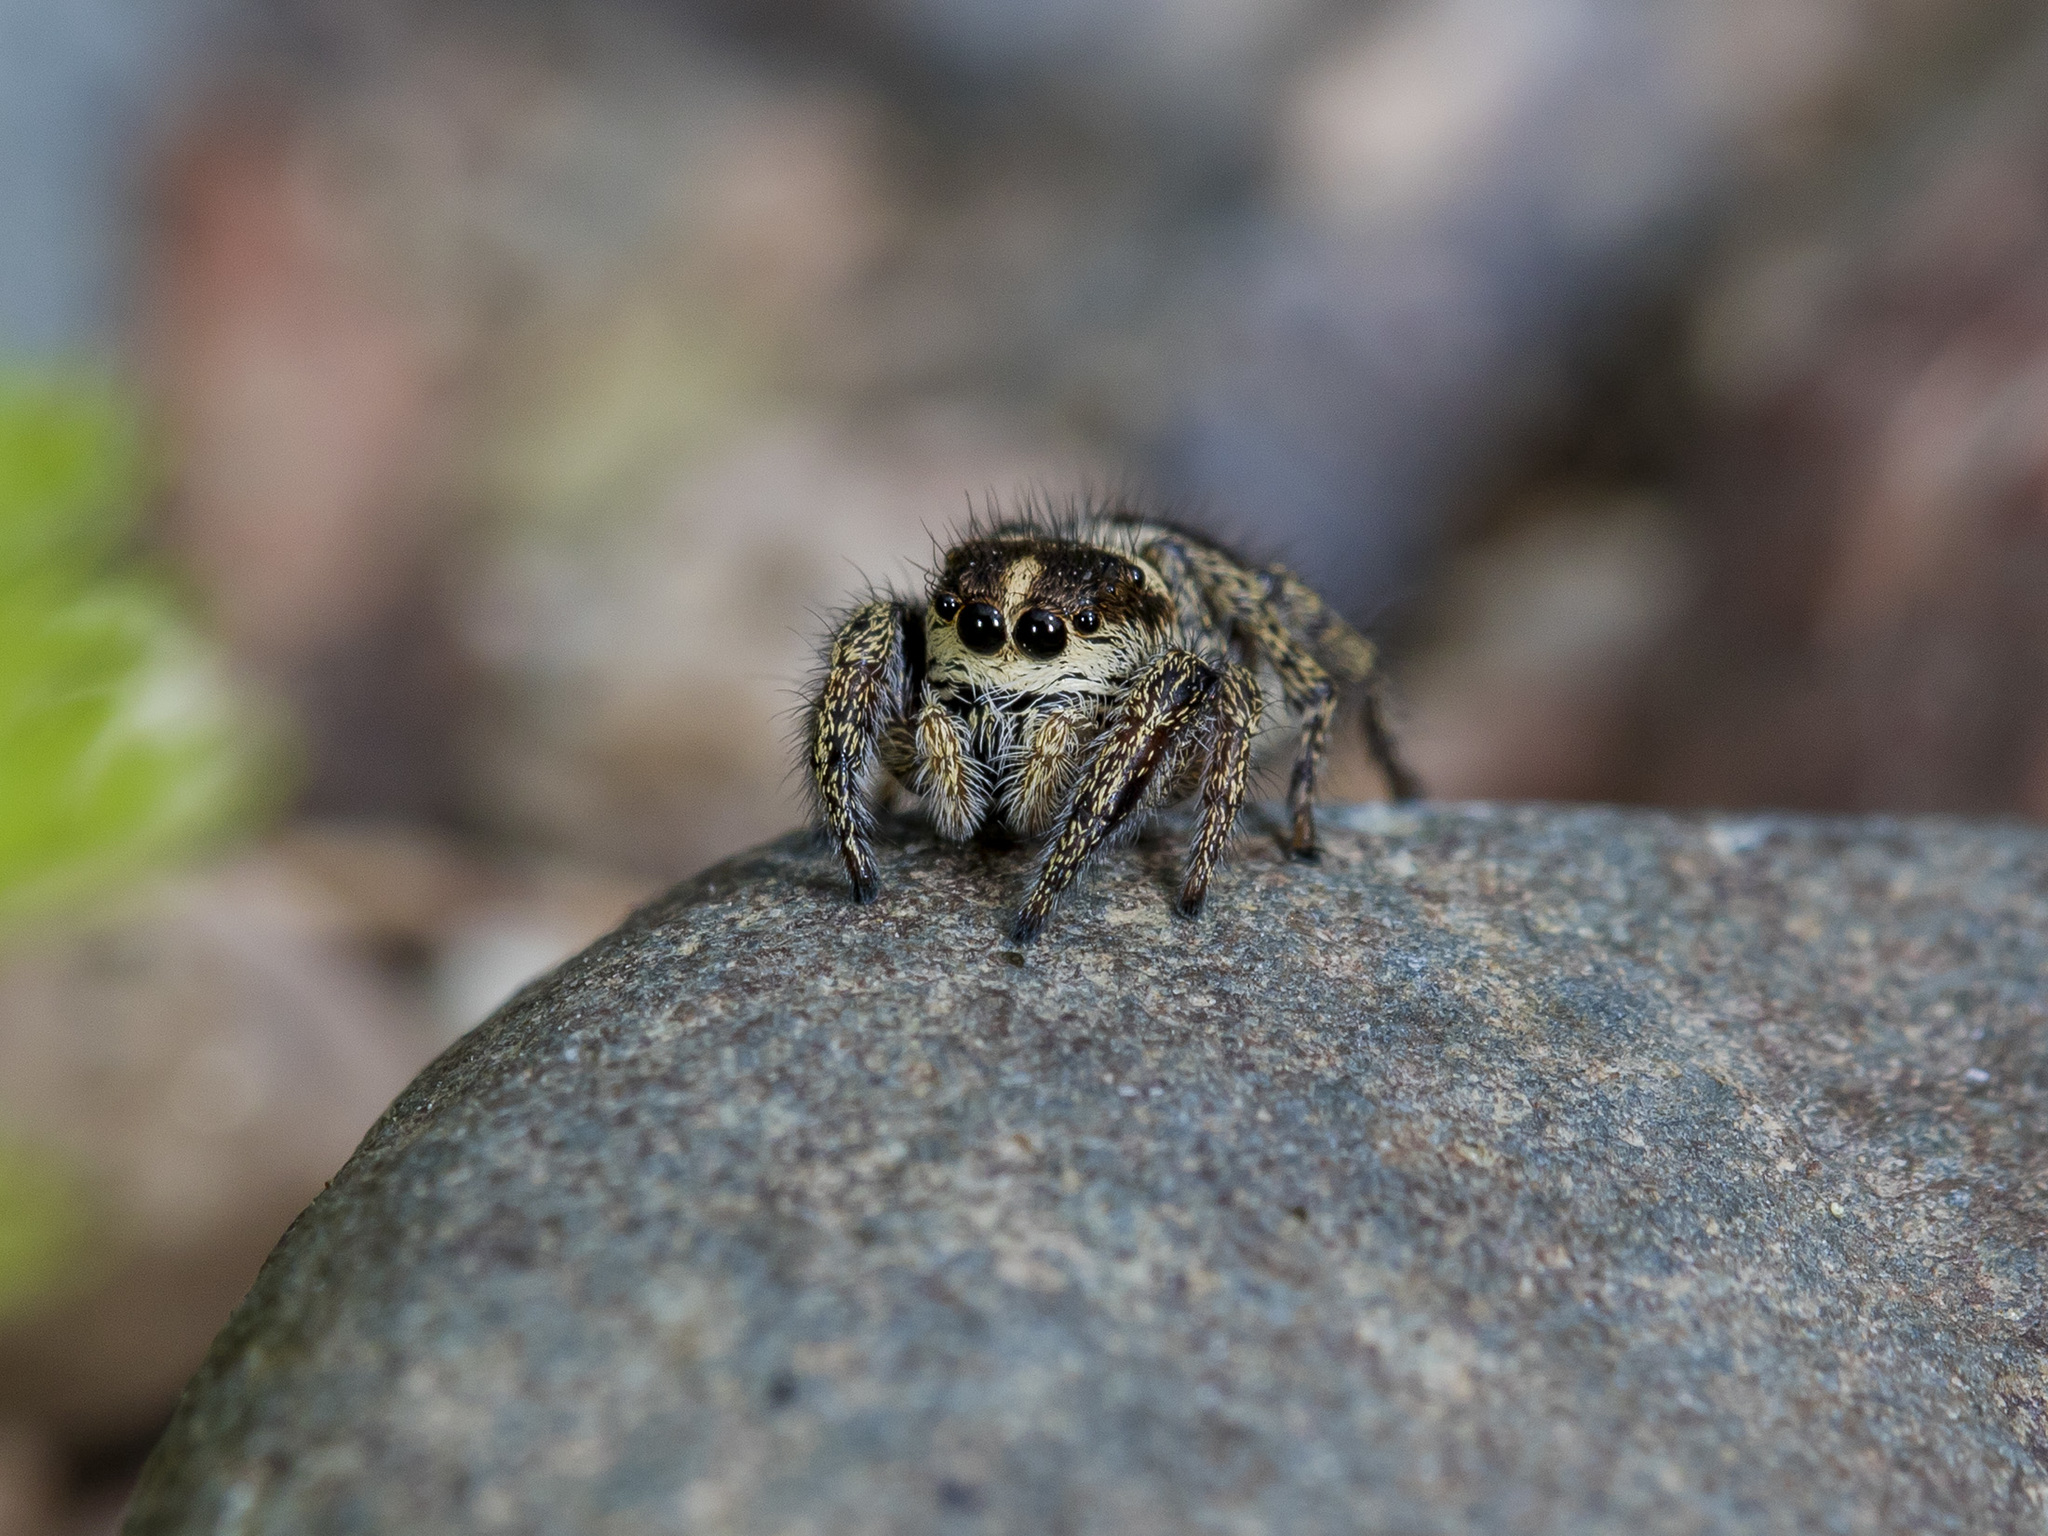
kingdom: Animalia
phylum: Arthropoda
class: Arachnida
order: Araneae
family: Salticidae
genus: Pellenes
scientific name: Pellenes allegrii
